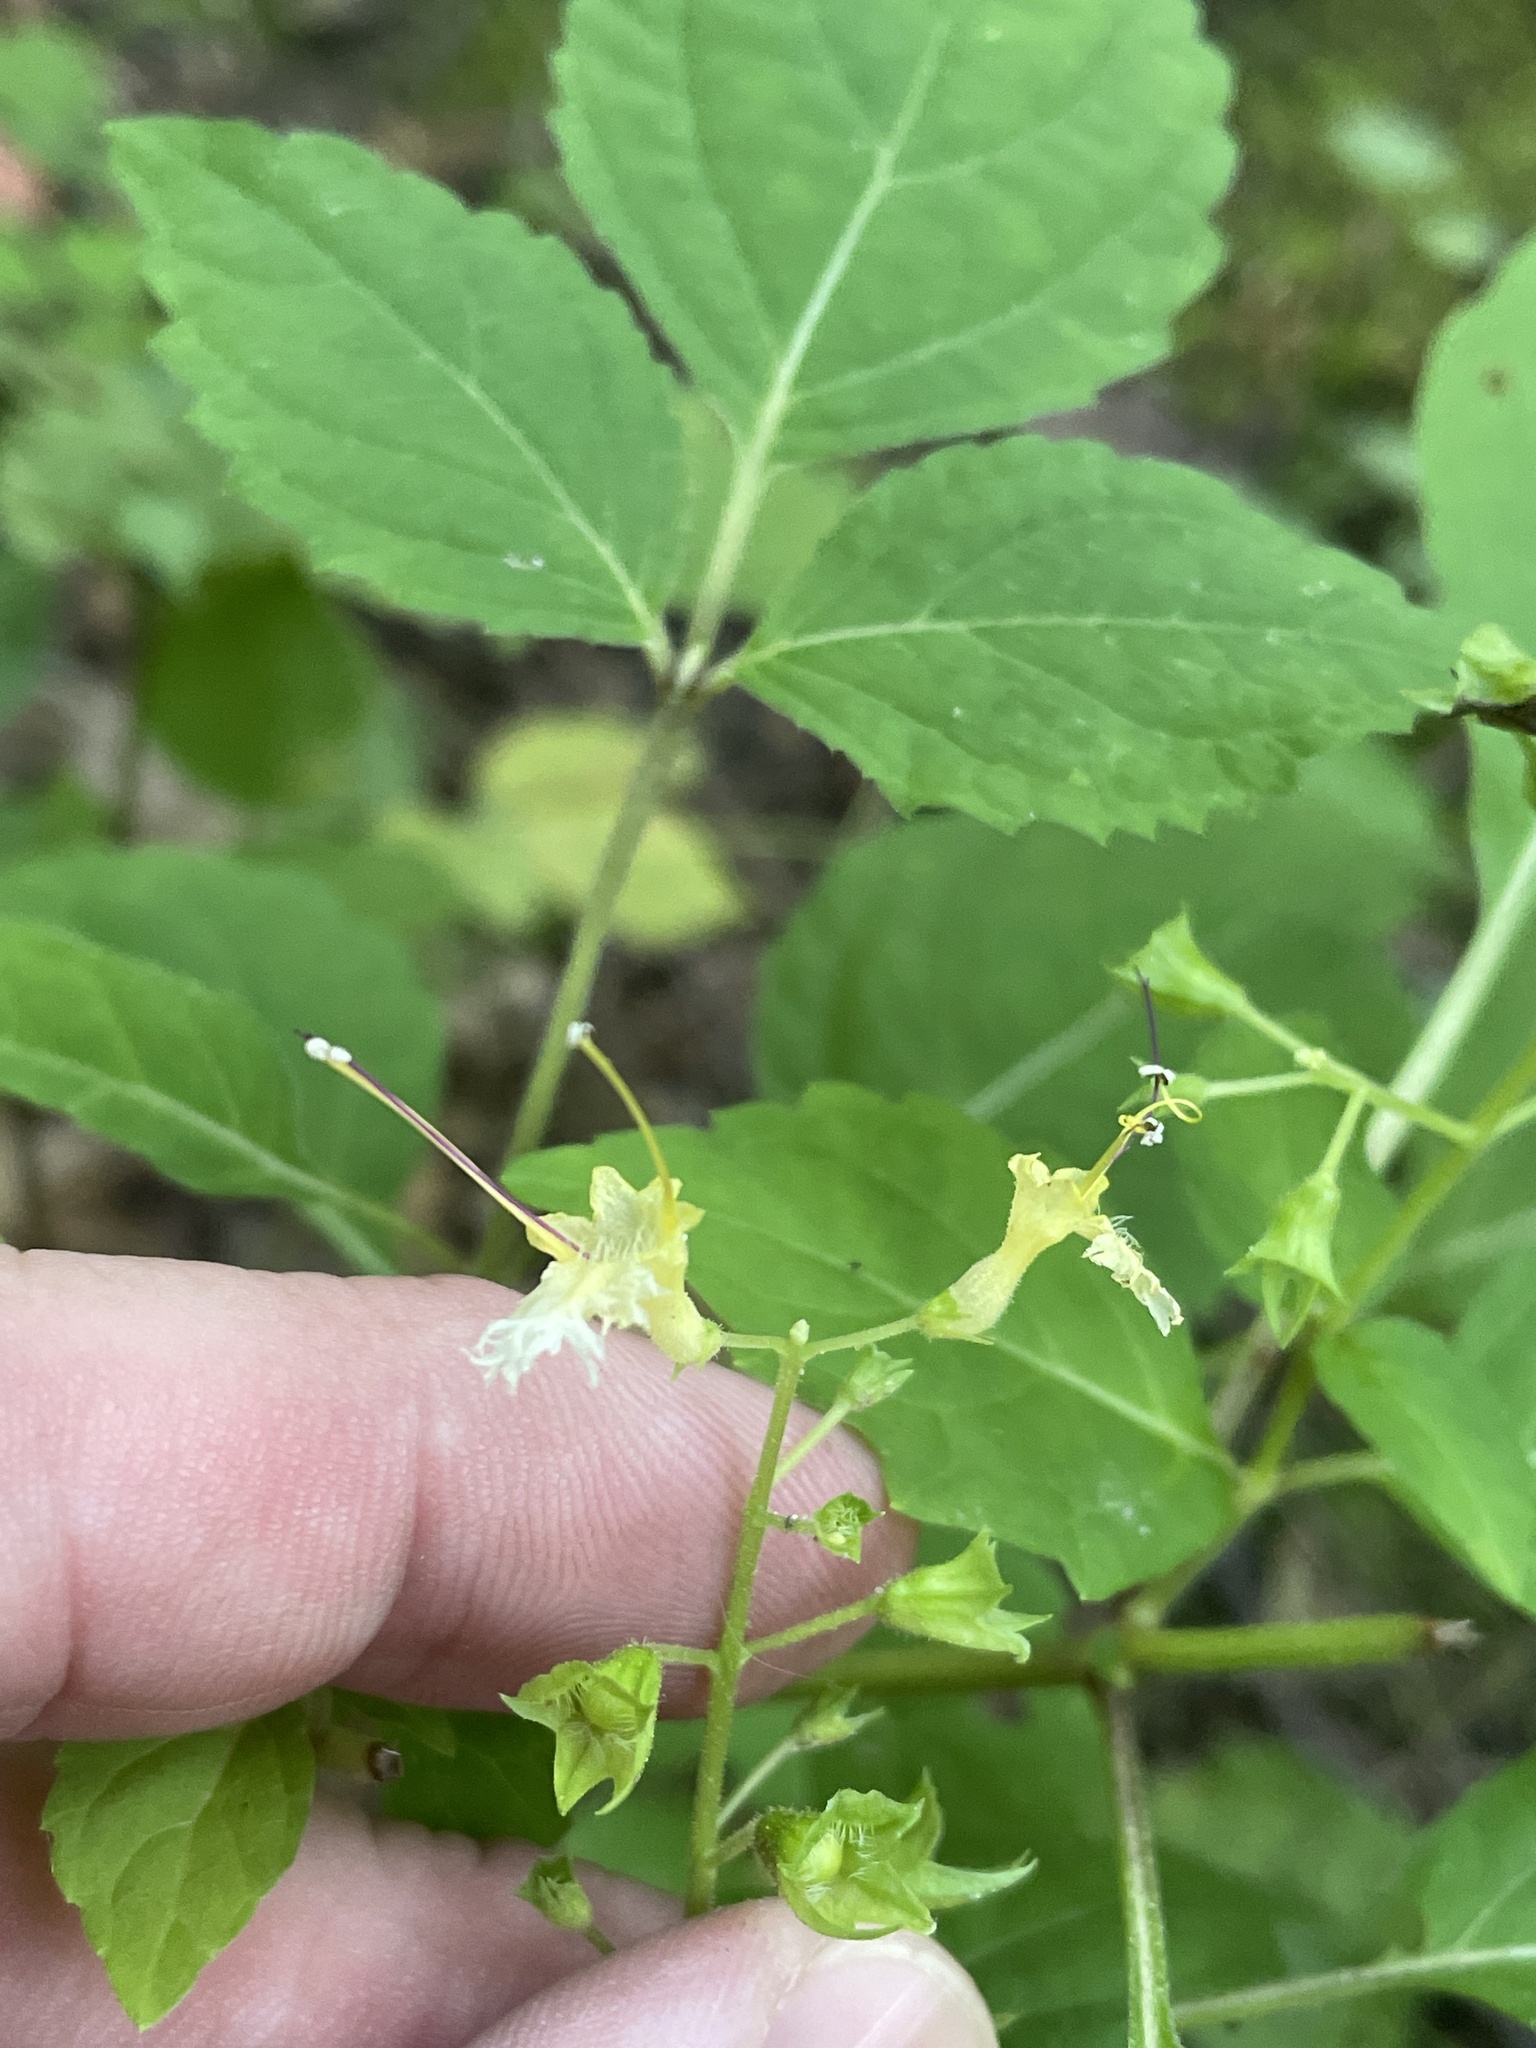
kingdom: Plantae
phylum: Tracheophyta
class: Magnoliopsida
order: Lamiales
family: Lamiaceae
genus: Collinsonia
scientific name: Collinsonia canadensis
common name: Northern horsebalm
